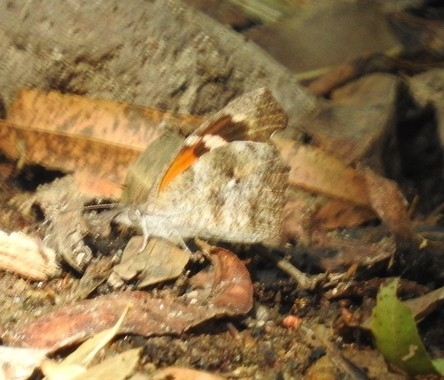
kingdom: Animalia
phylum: Arthropoda
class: Insecta
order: Lepidoptera
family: Nymphalidae
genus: Libytheana
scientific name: Libytheana carinenta
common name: American snout
